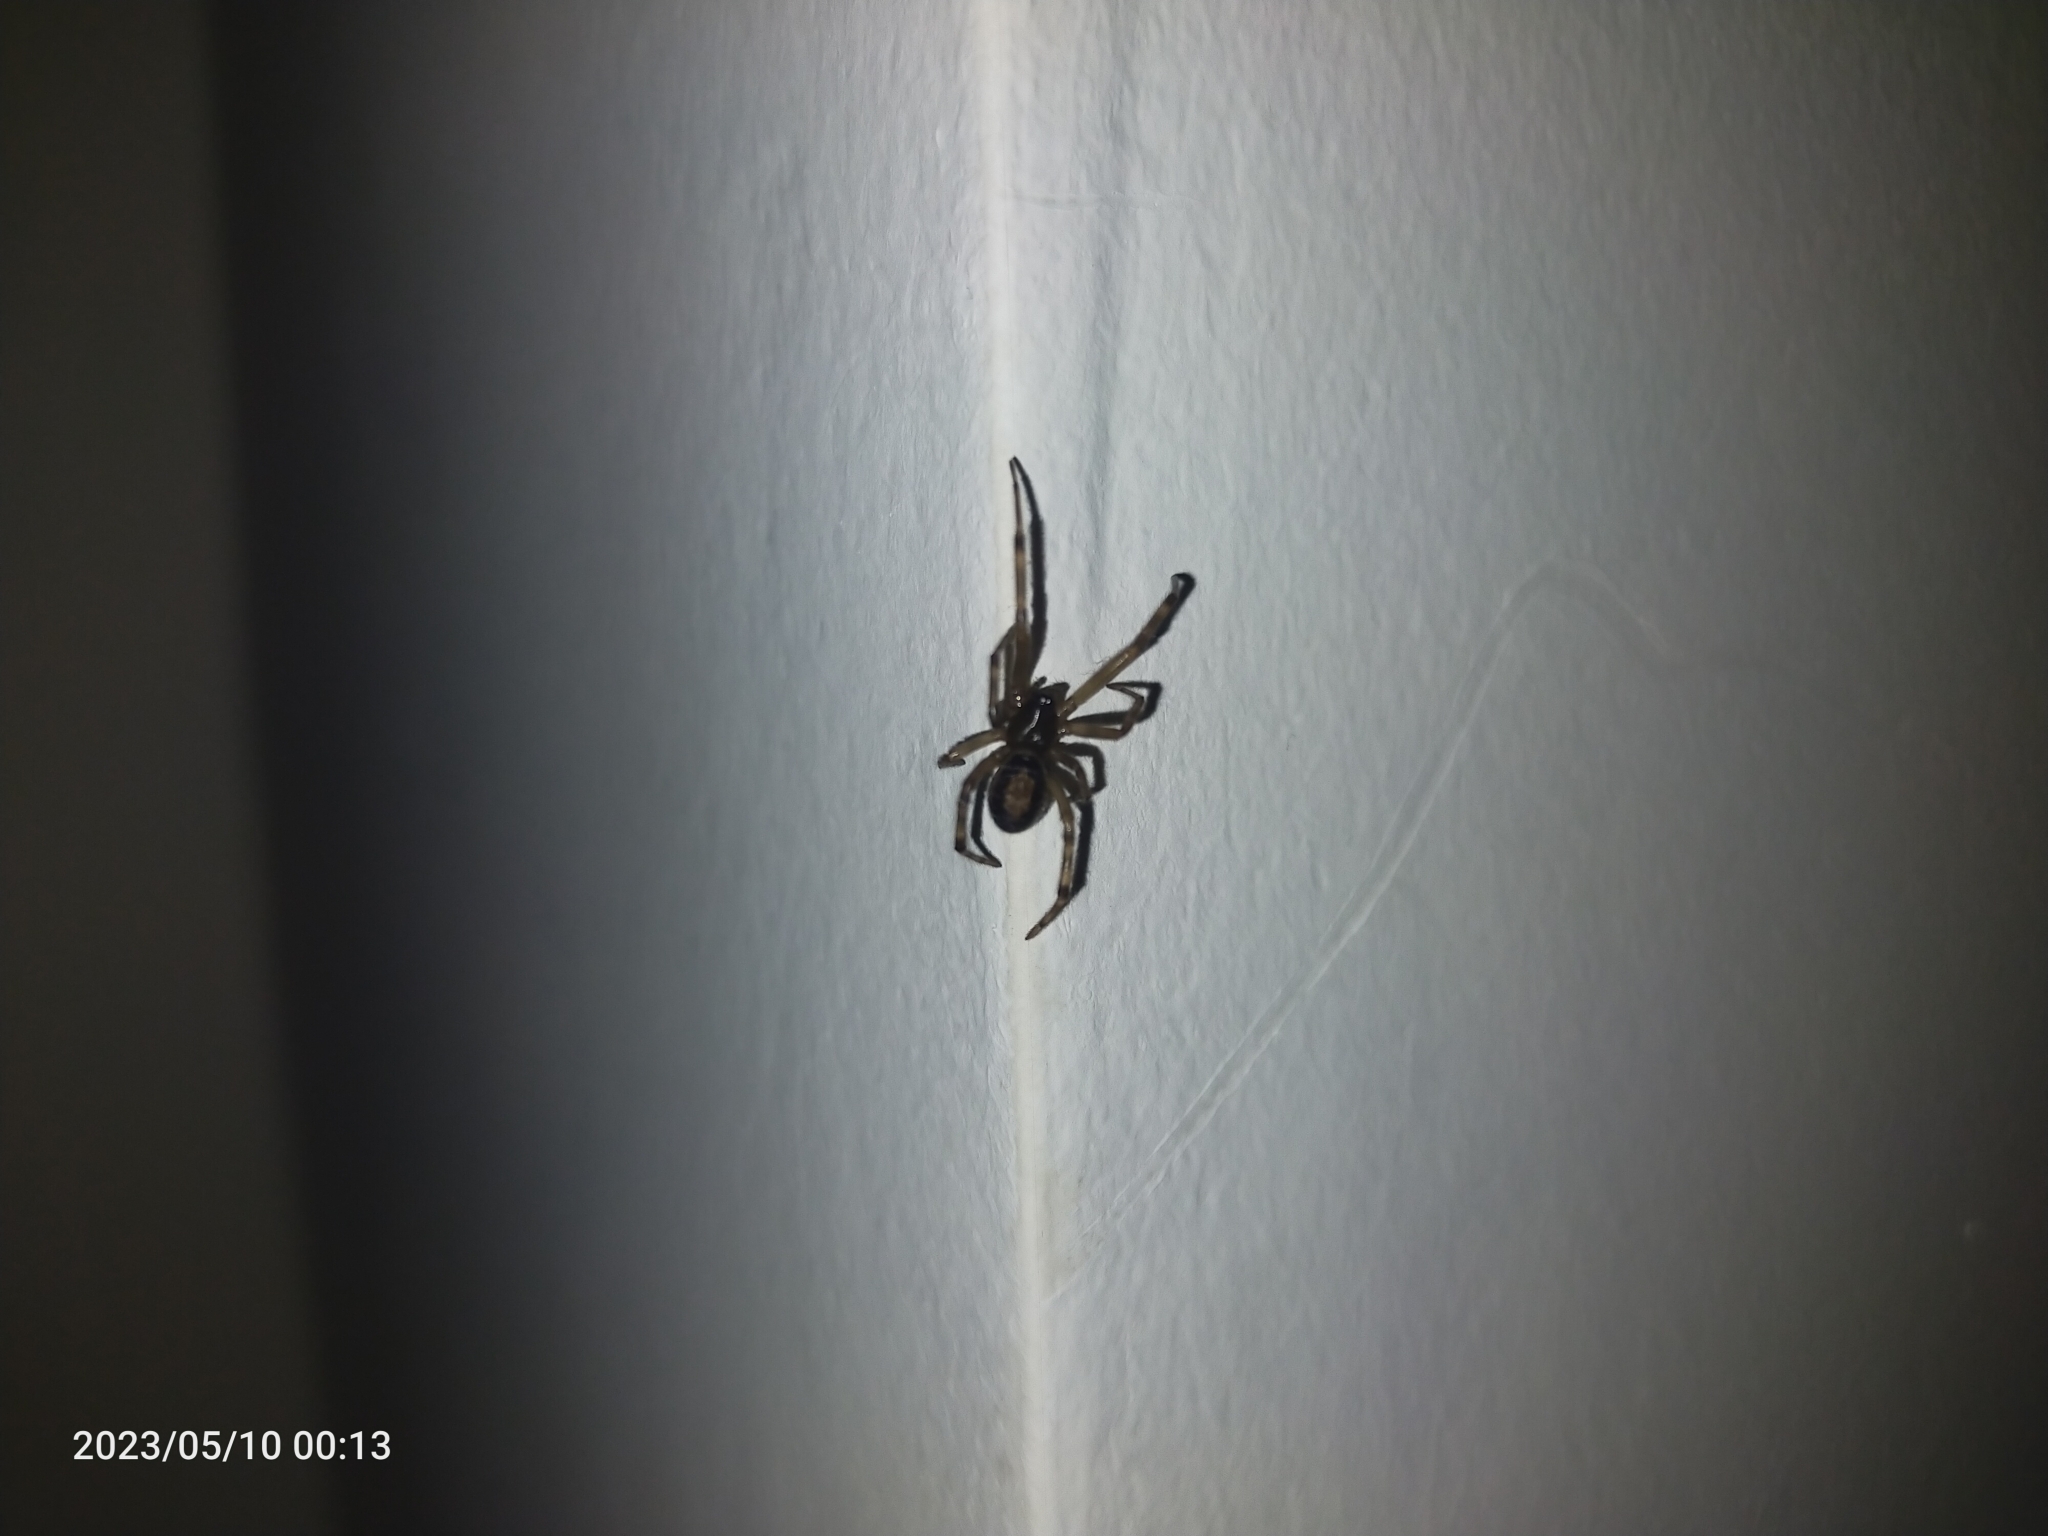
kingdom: Animalia
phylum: Arthropoda
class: Arachnida
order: Araneae
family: Theridiidae
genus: Steatoda
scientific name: Steatoda nobilis
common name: Cobweb weaver
